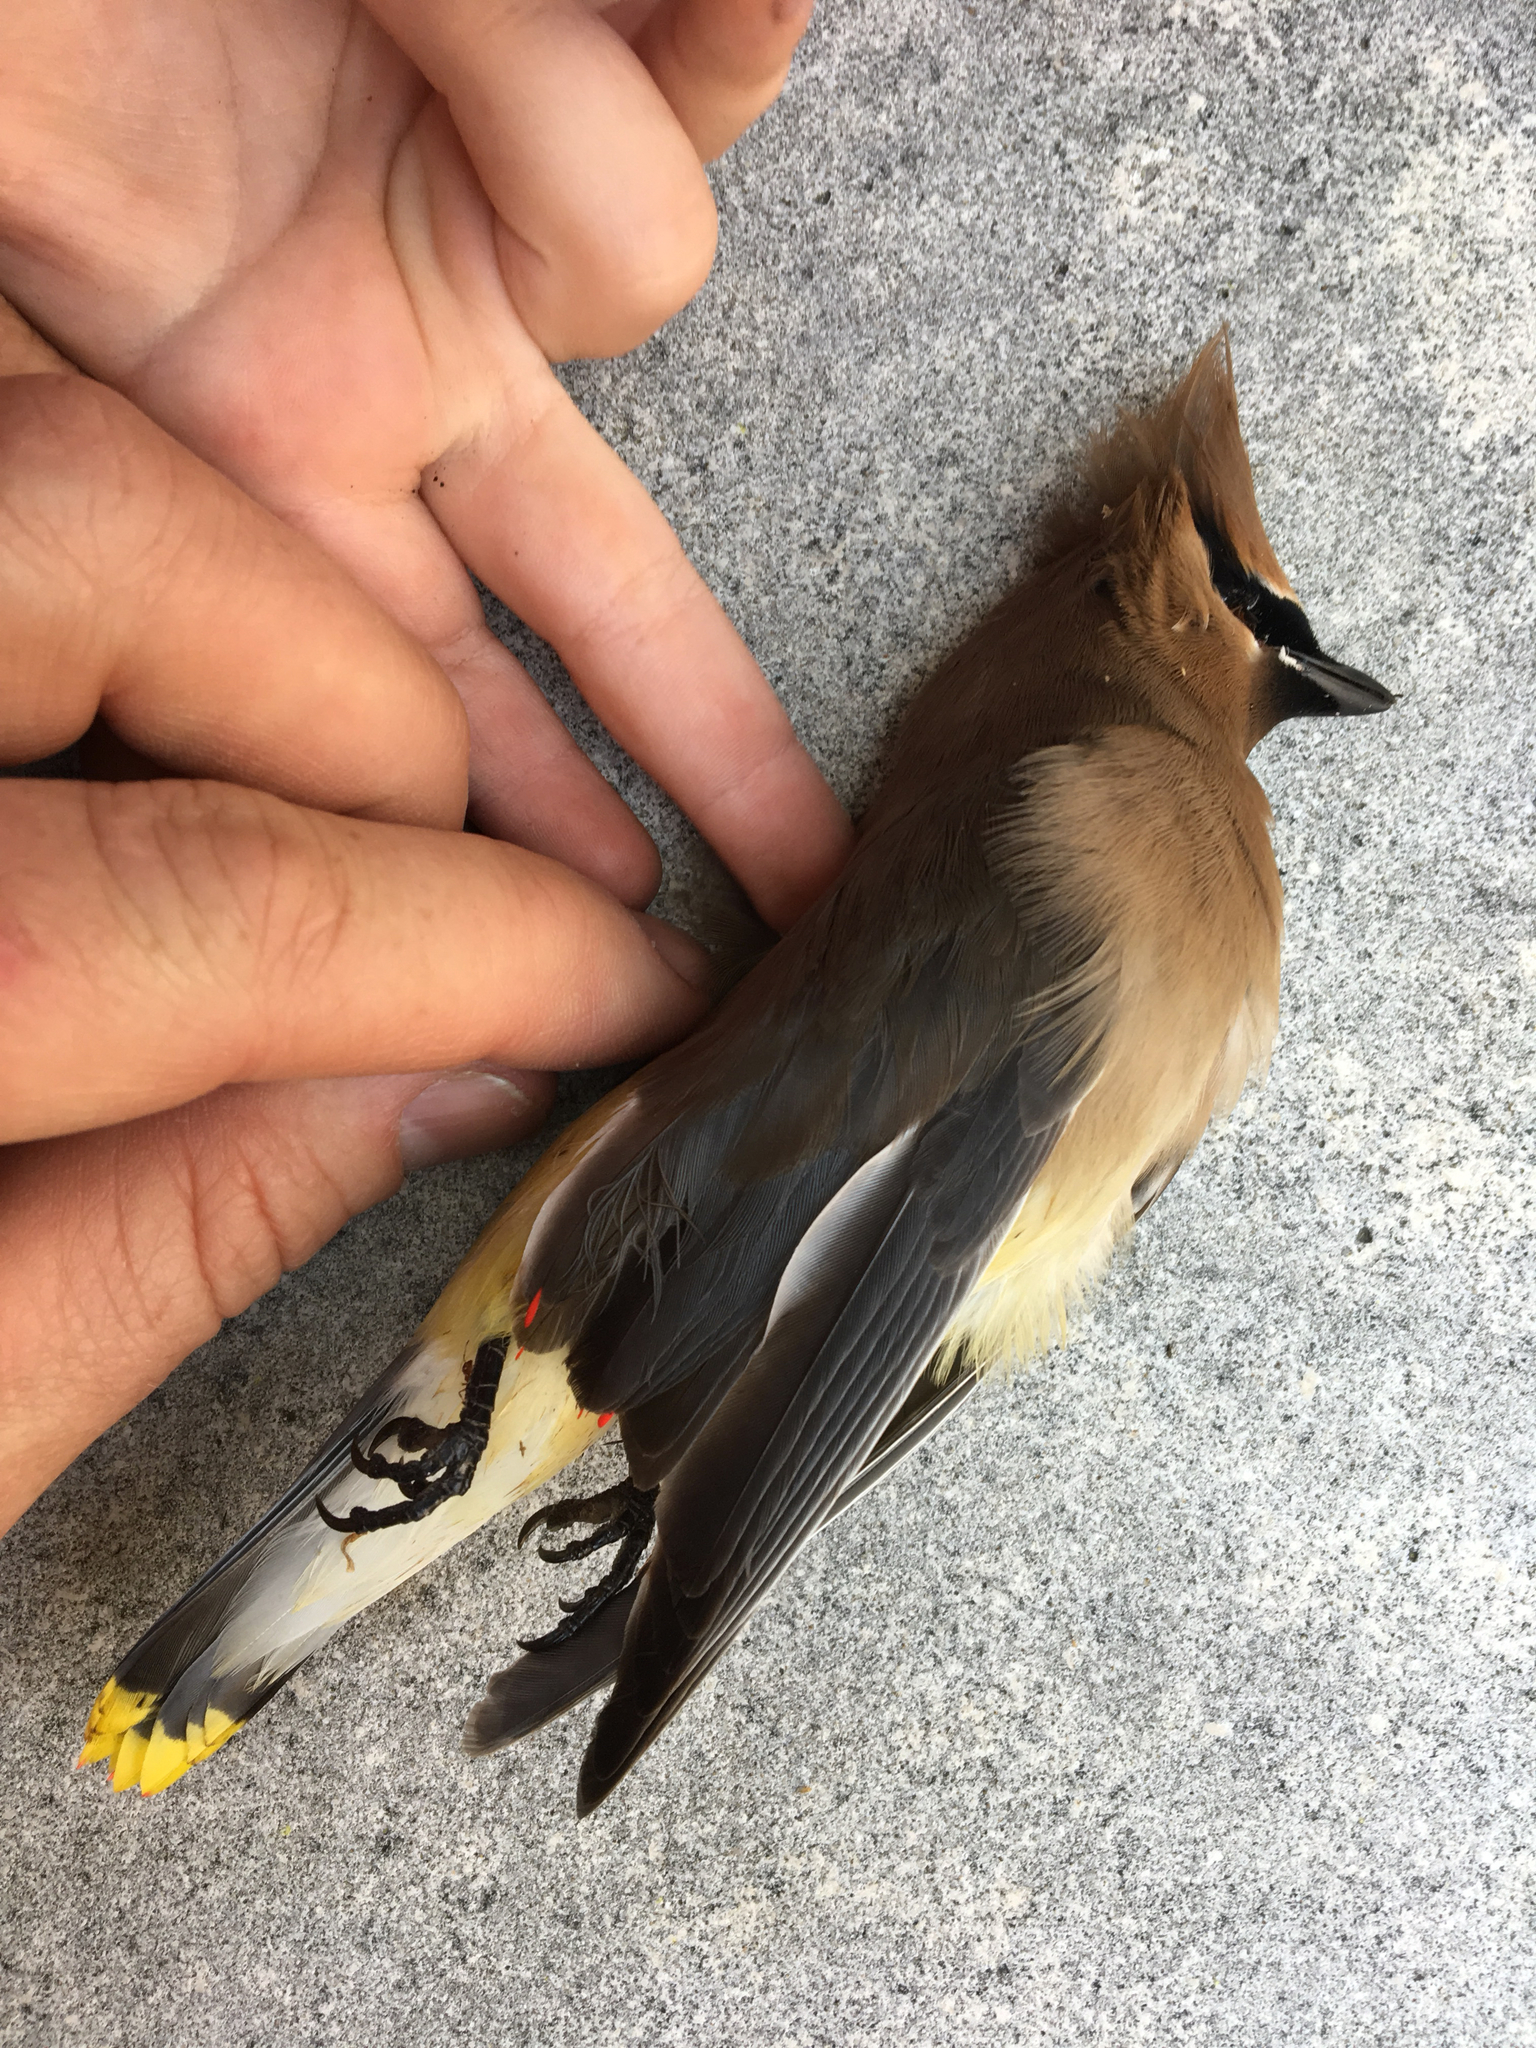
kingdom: Animalia
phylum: Chordata
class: Aves
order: Passeriformes
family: Bombycillidae
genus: Bombycilla
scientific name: Bombycilla cedrorum
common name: Cedar waxwing
